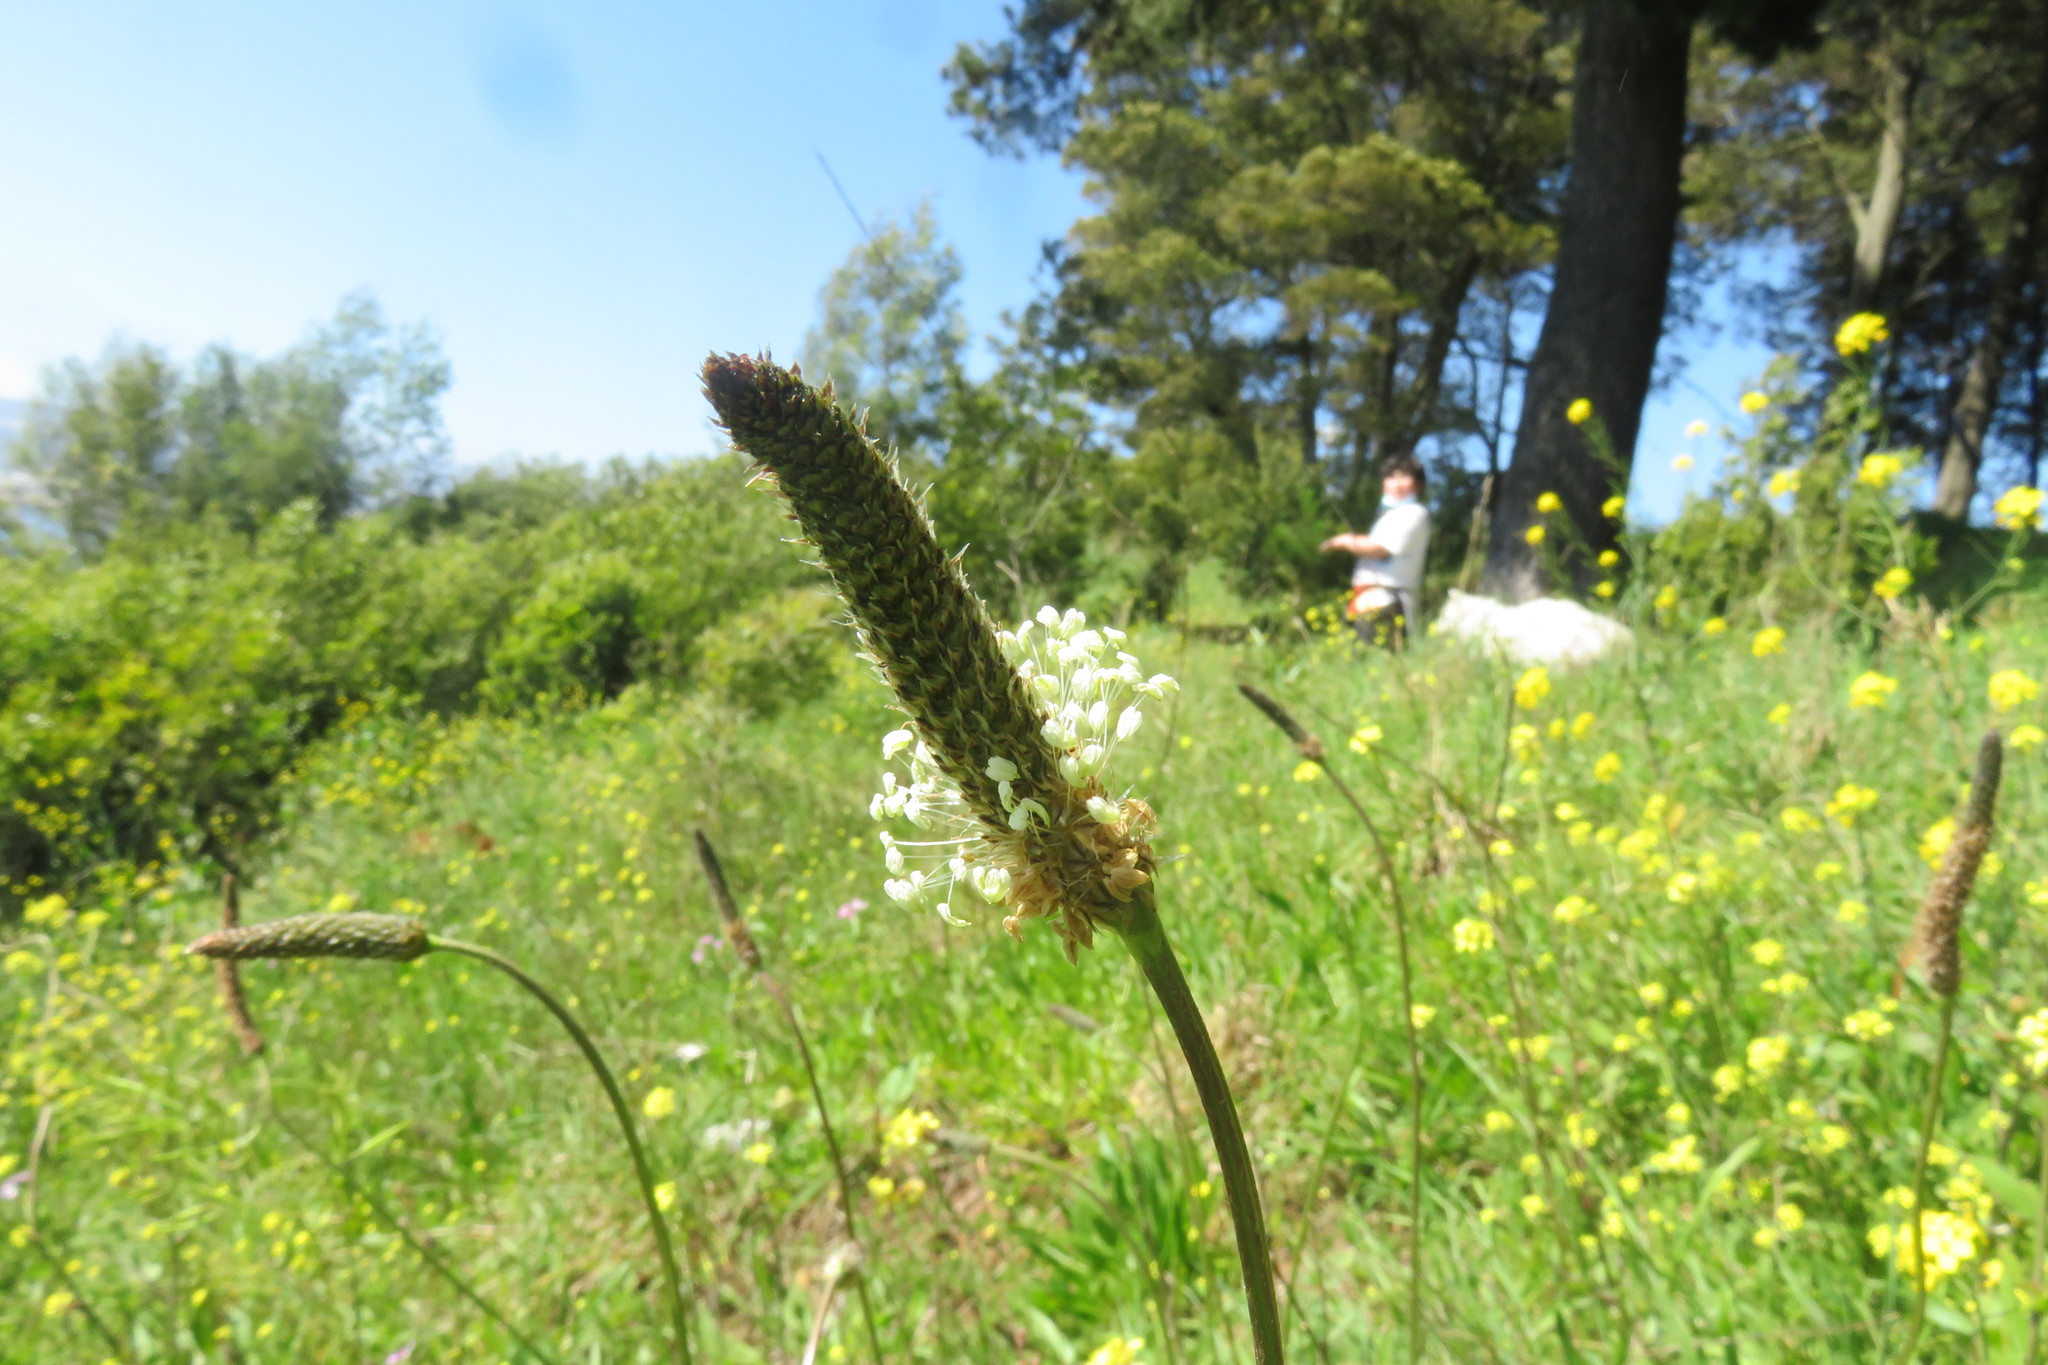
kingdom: Plantae
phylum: Tracheophyta
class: Magnoliopsida
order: Lamiales
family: Plantaginaceae
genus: Plantago
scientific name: Plantago lanceolata
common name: Ribwort plantain
